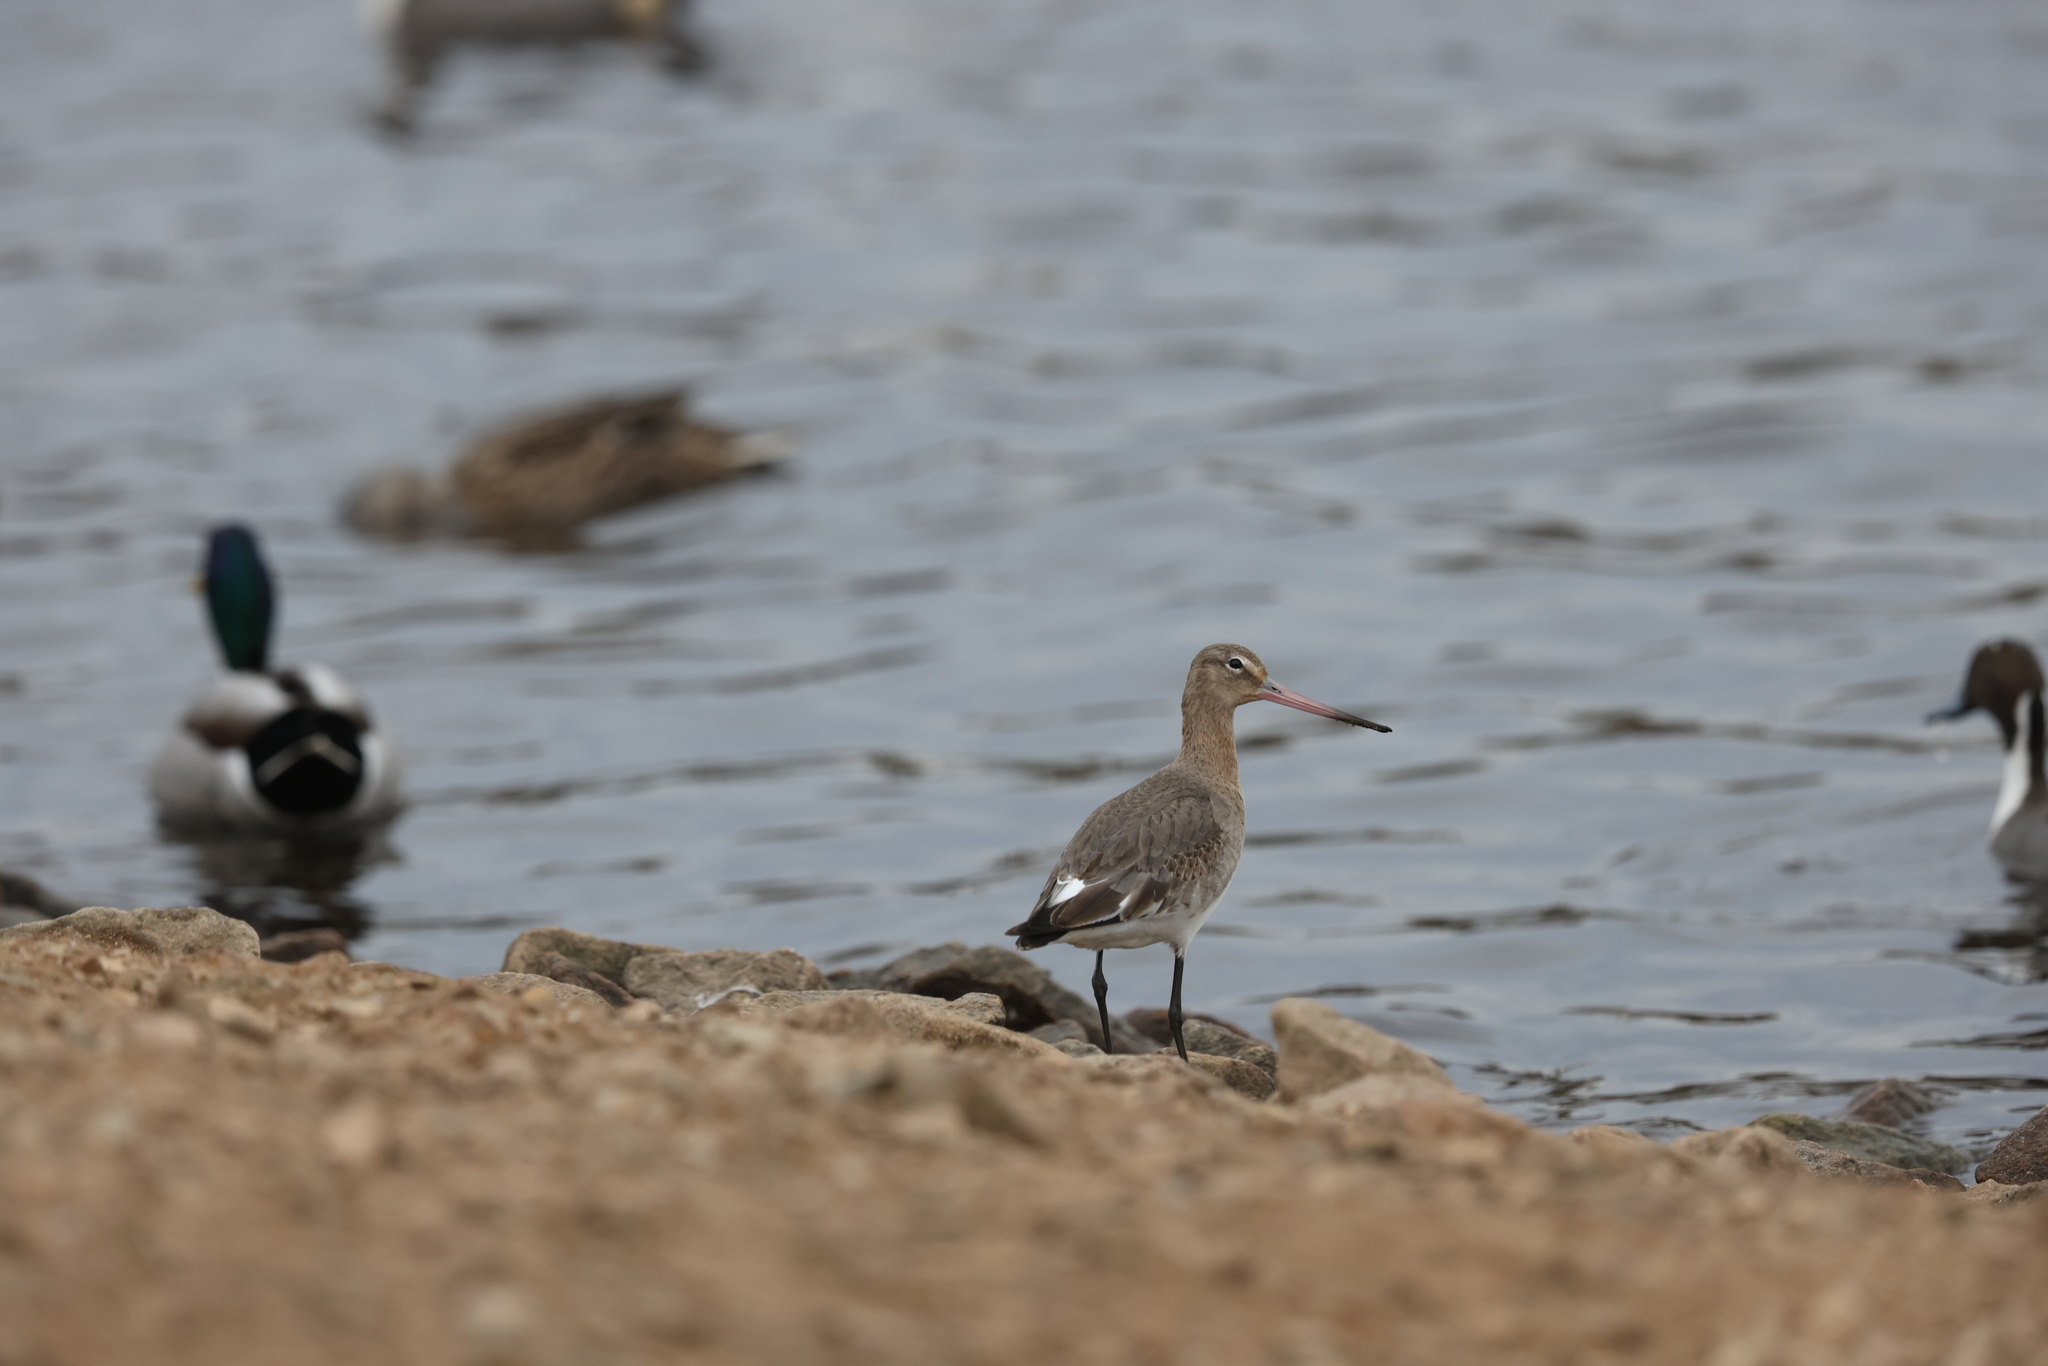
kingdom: Animalia
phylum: Chordata
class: Aves
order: Charadriiformes
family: Scolopacidae
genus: Limosa
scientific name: Limosa limosa
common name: Black-tailed godwit
